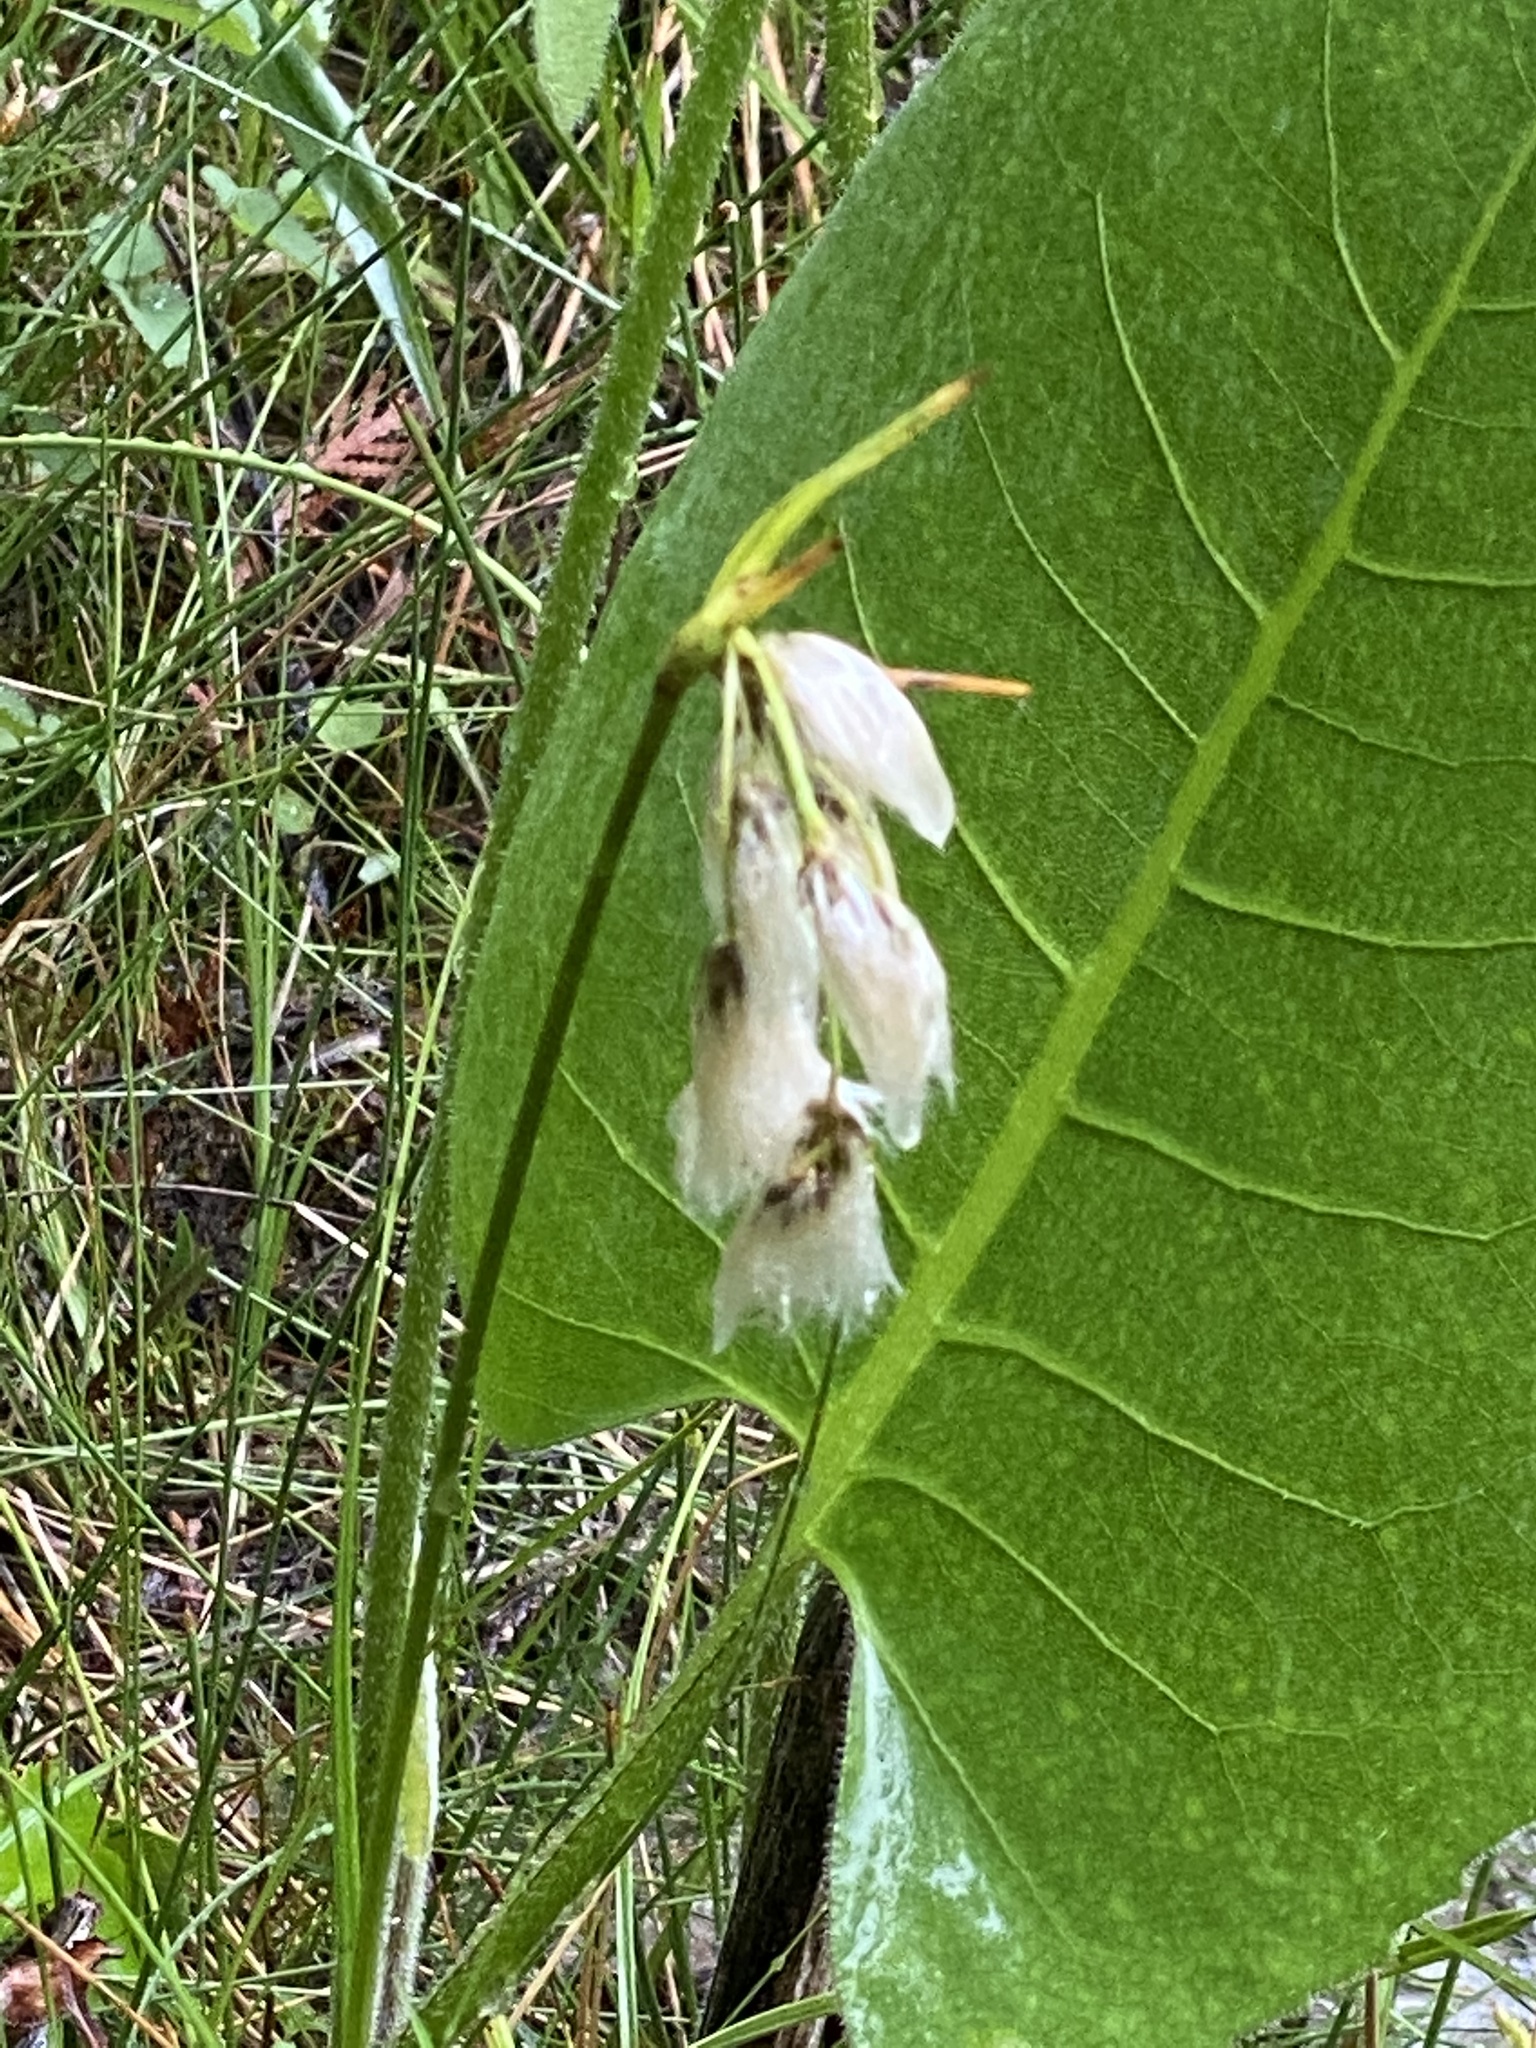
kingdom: Plantae
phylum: Tracheophyta
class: Liliopsida
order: Poales
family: Cyperaceae
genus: Eriophorum
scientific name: Eriophorum viridicarinatum
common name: Green-keeled cottongrass
